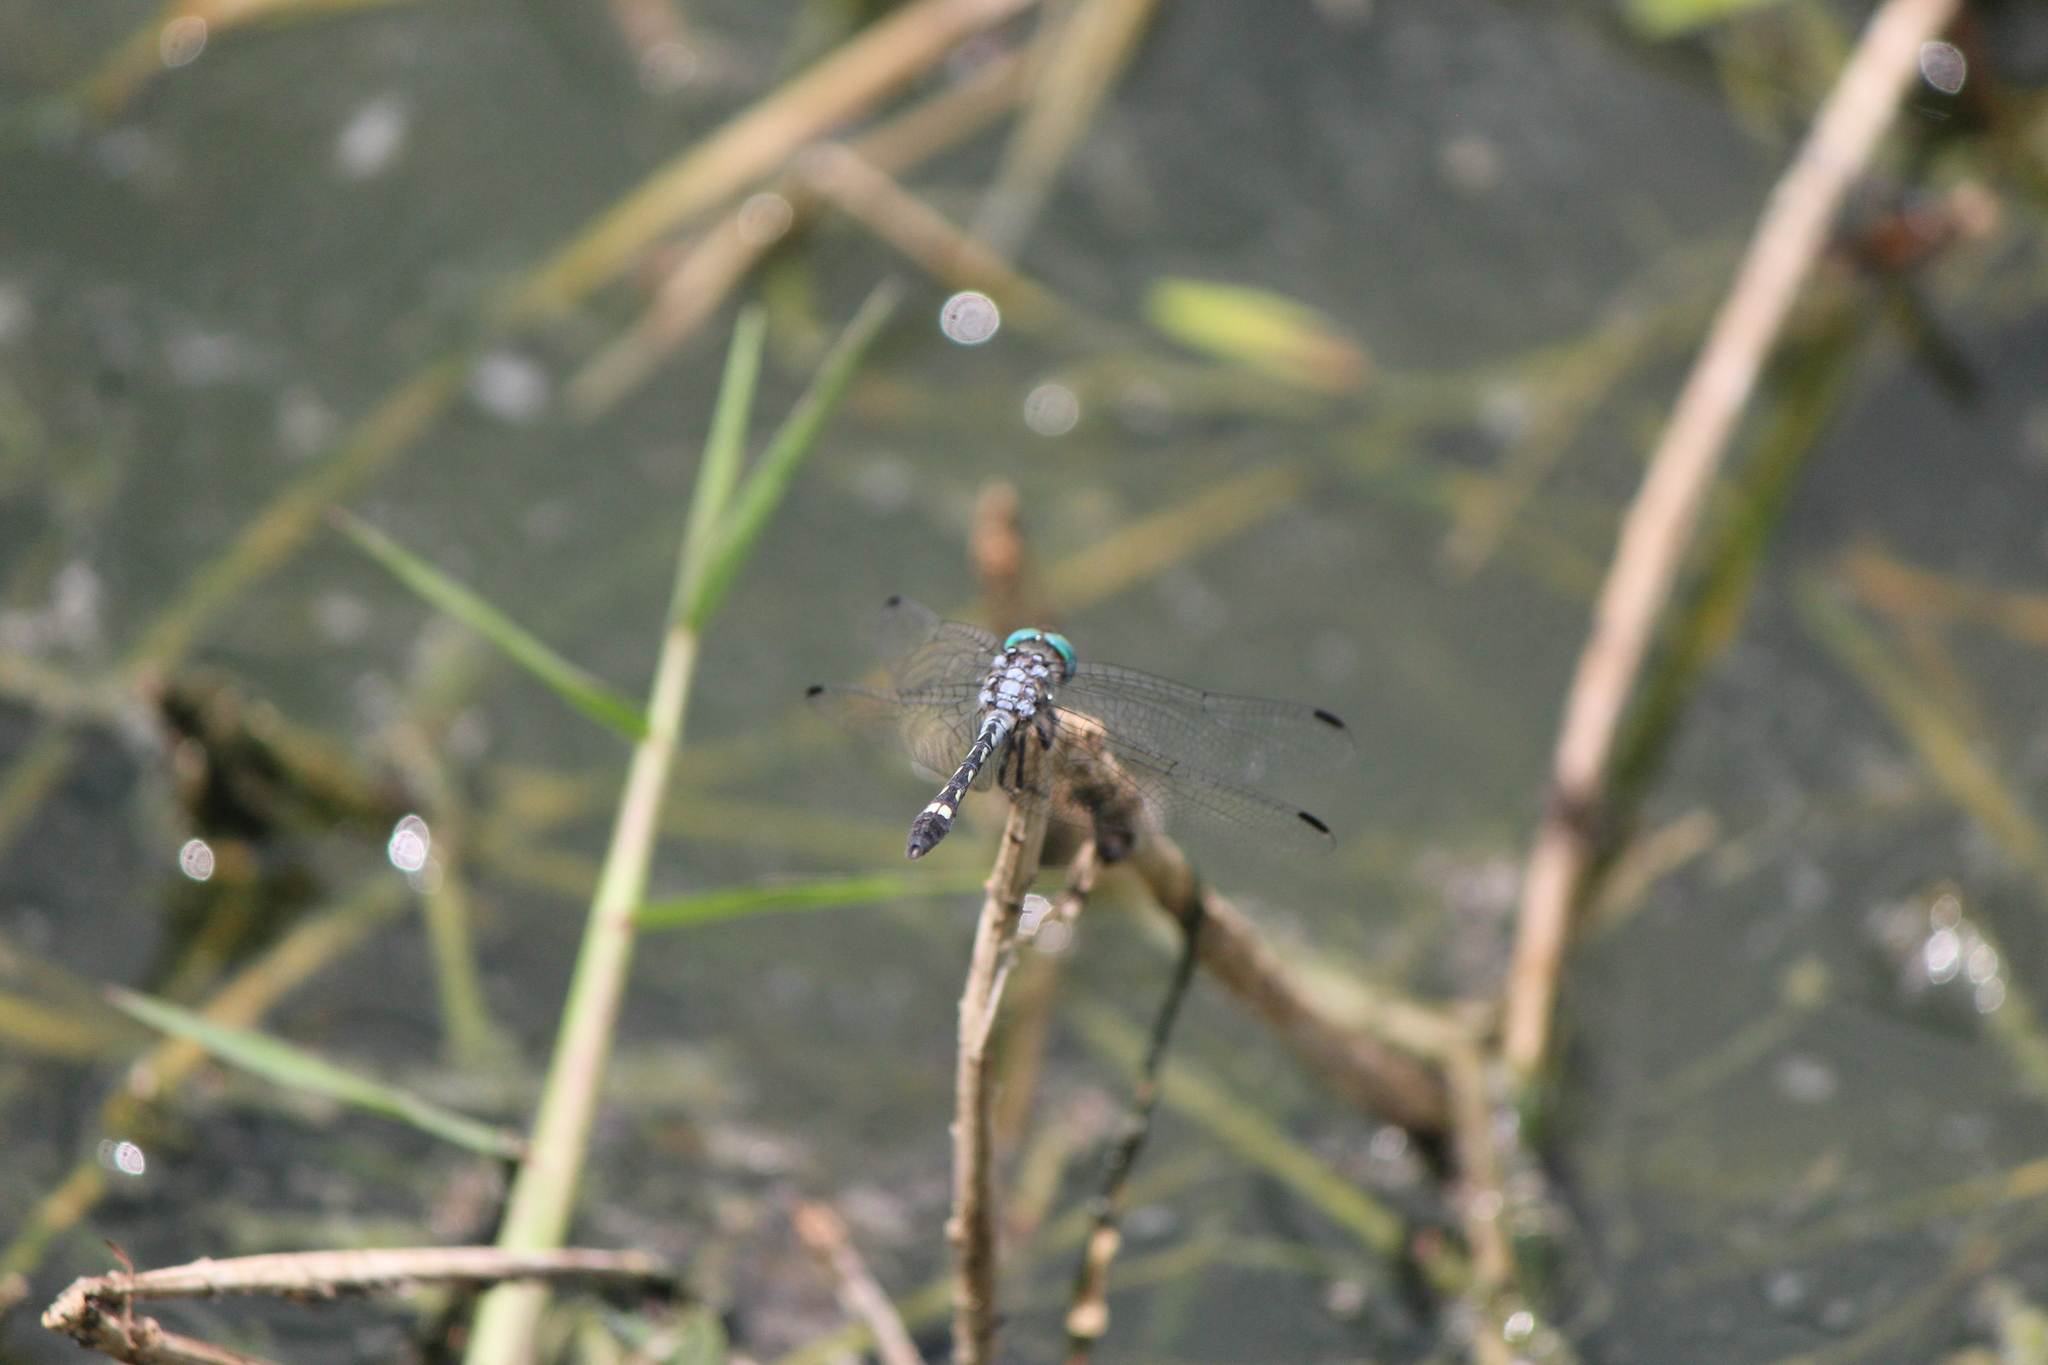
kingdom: Animalia
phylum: Arthropoda
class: Insecta
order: Odonata
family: Libellulidae
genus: Micrathyria
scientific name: Micrathyria hagenii
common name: Thornbush dasher
